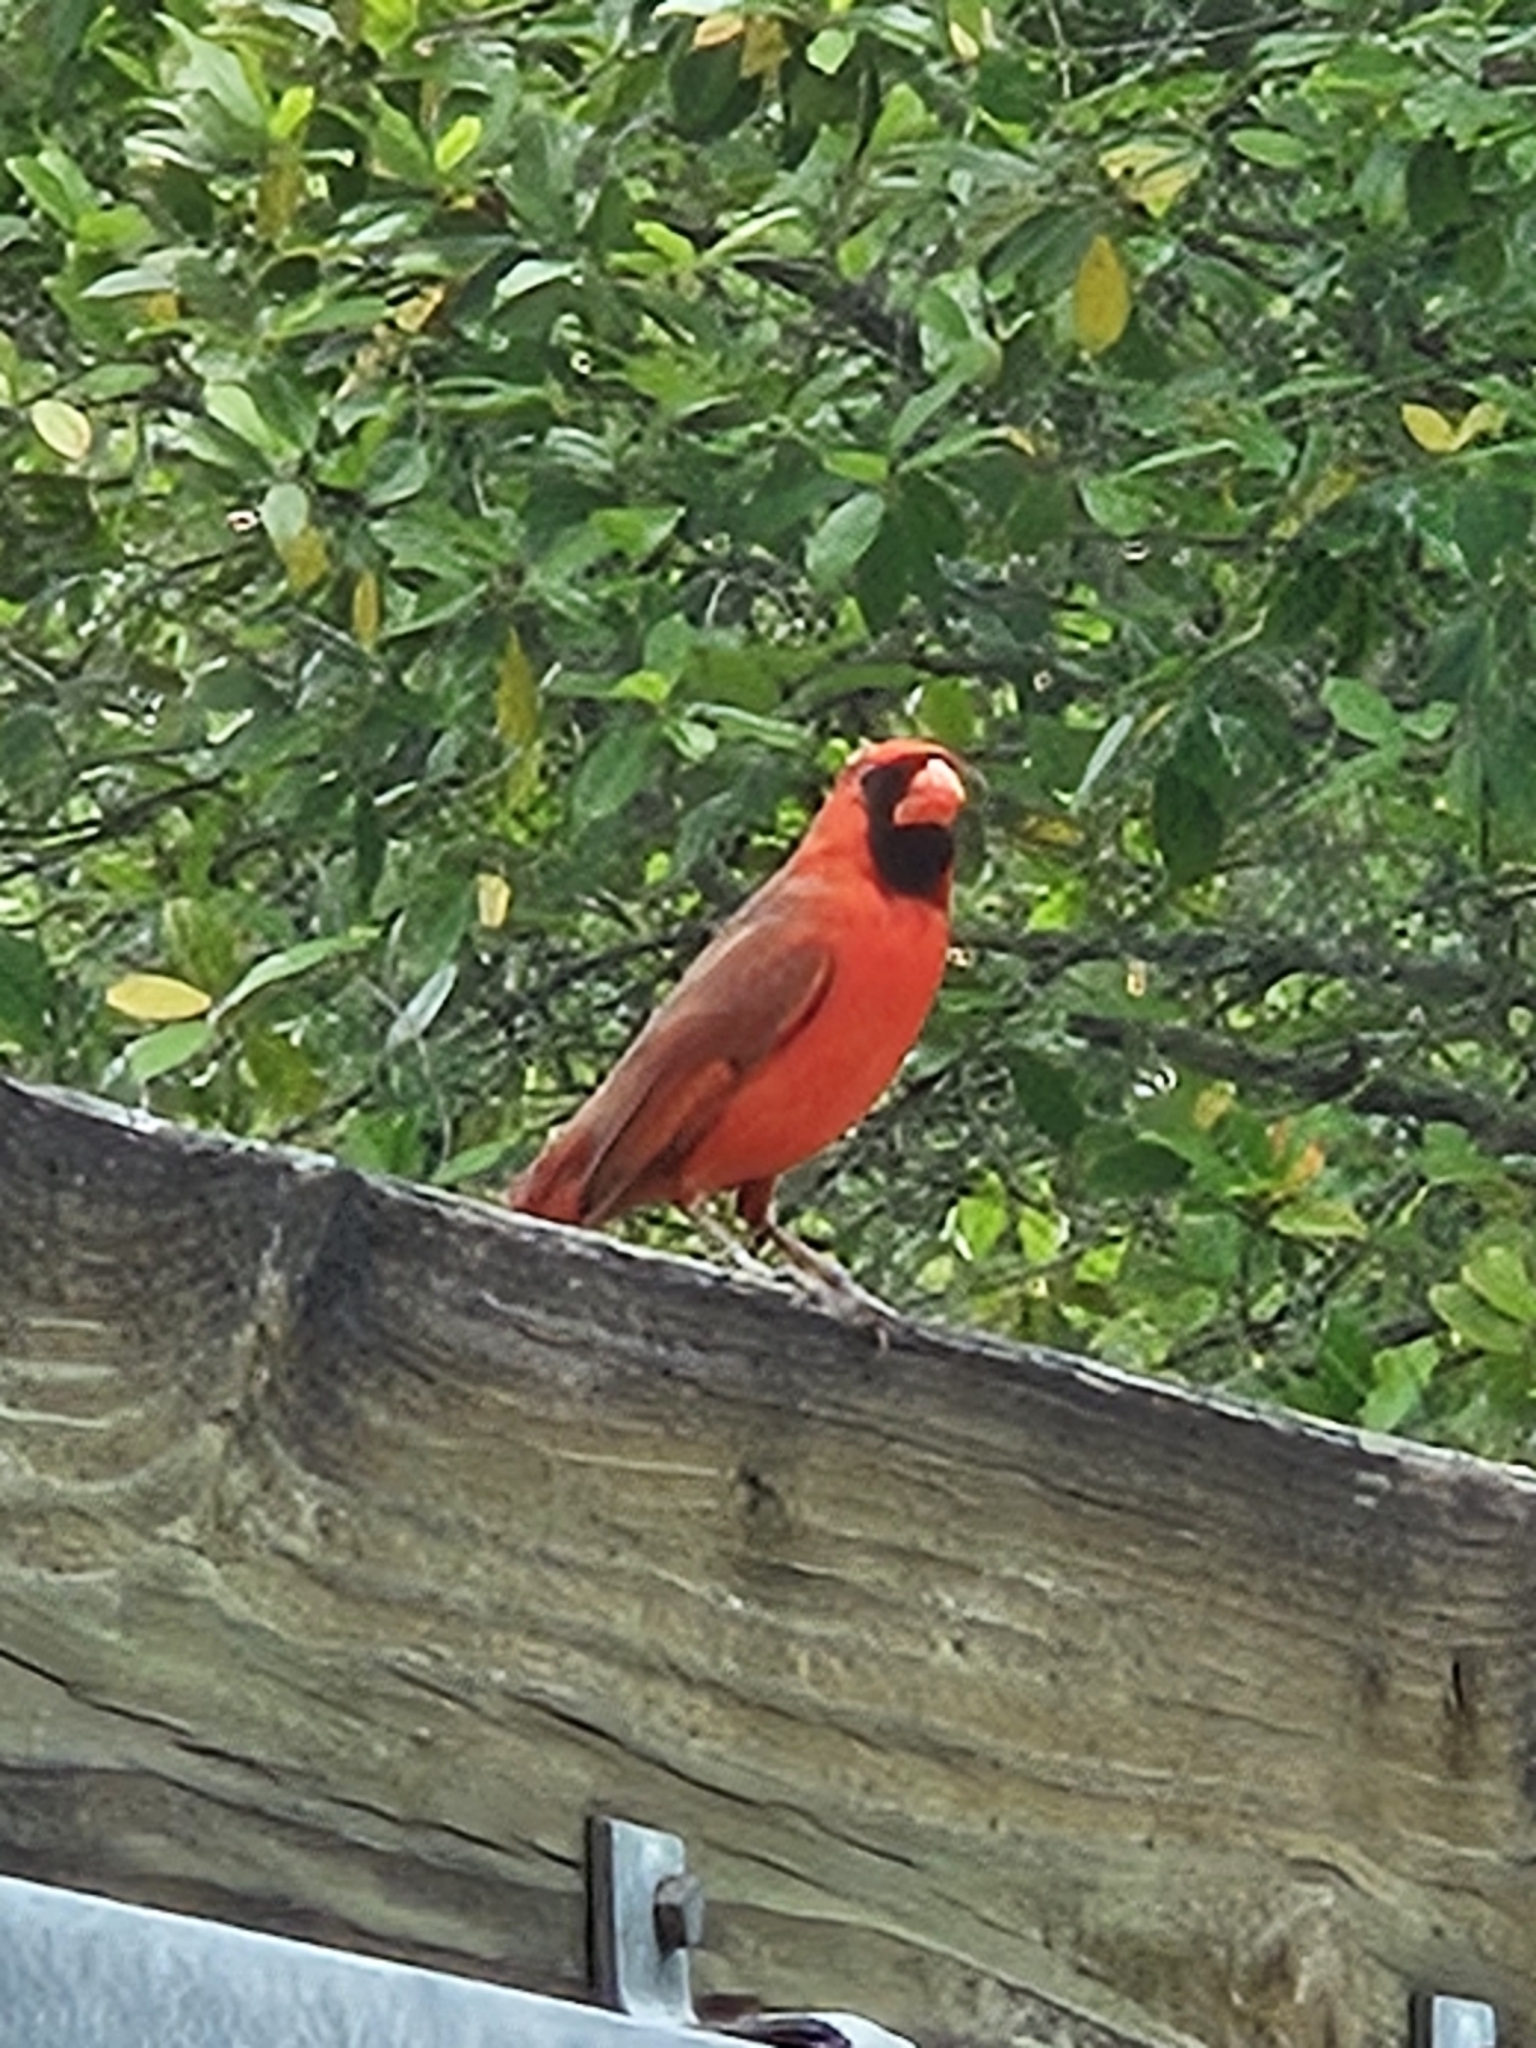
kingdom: Animalia
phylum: Chordata
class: Aves
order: Passeriformes
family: Cardinalidae
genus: Cardinalis
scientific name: Cardinalis cardinalis
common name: Northern cardinal
